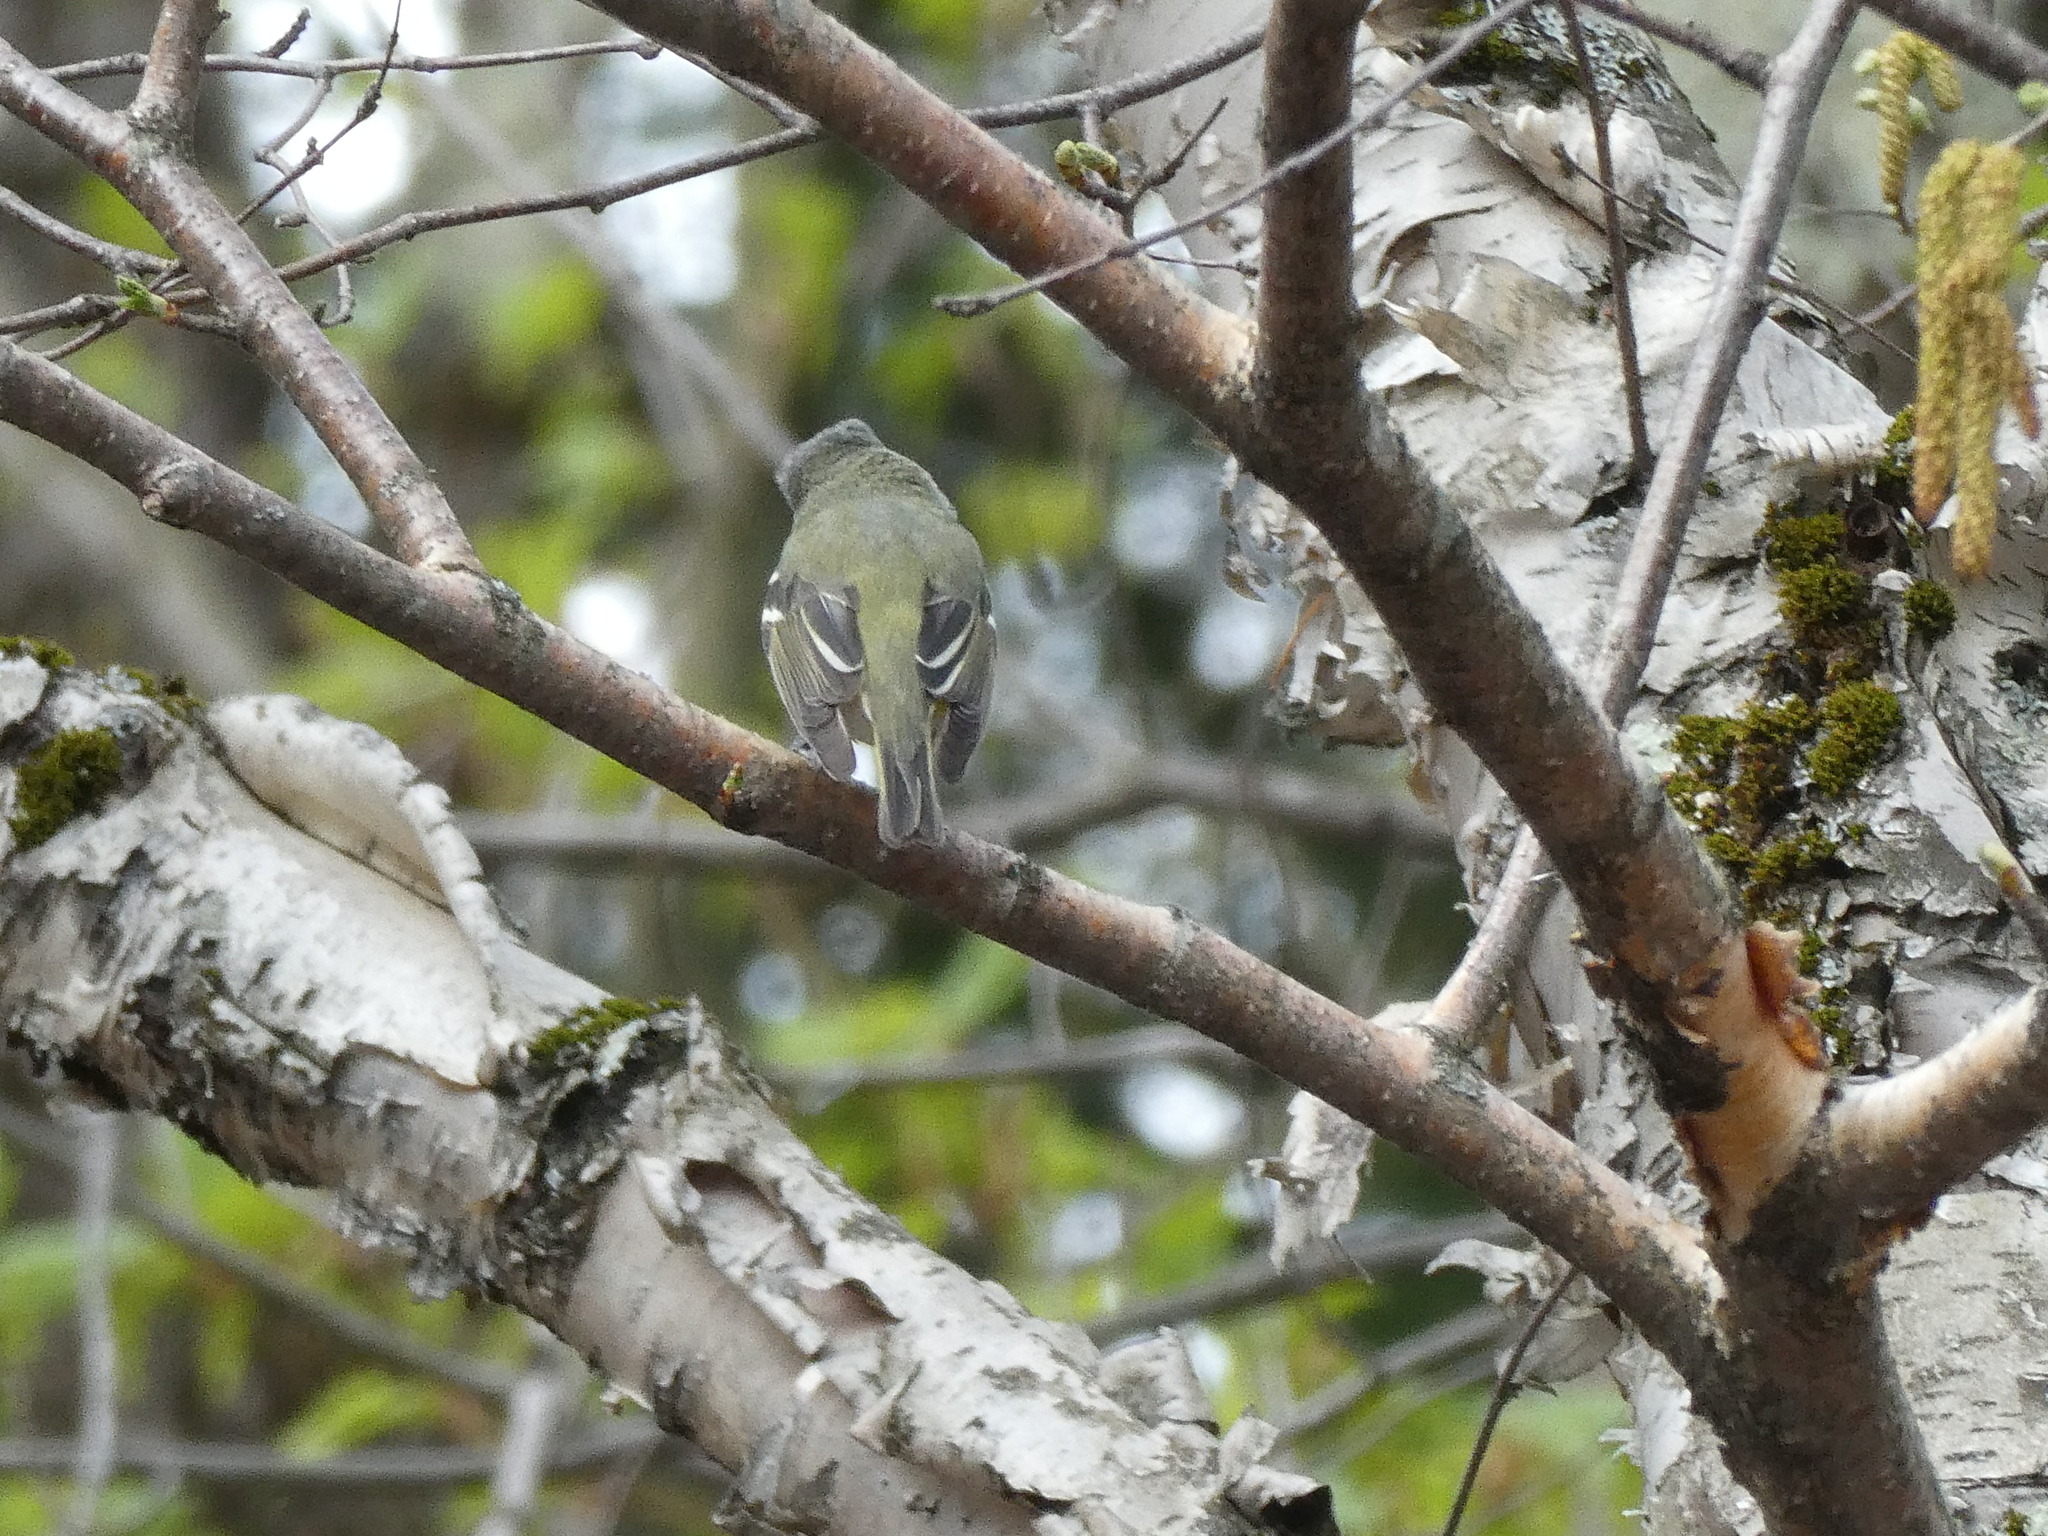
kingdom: Animalia
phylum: Chordata
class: Aves
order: Passeriformes
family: Vireonidae
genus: Vireo
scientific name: Vireo solitarius
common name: Blue-headed vireo
